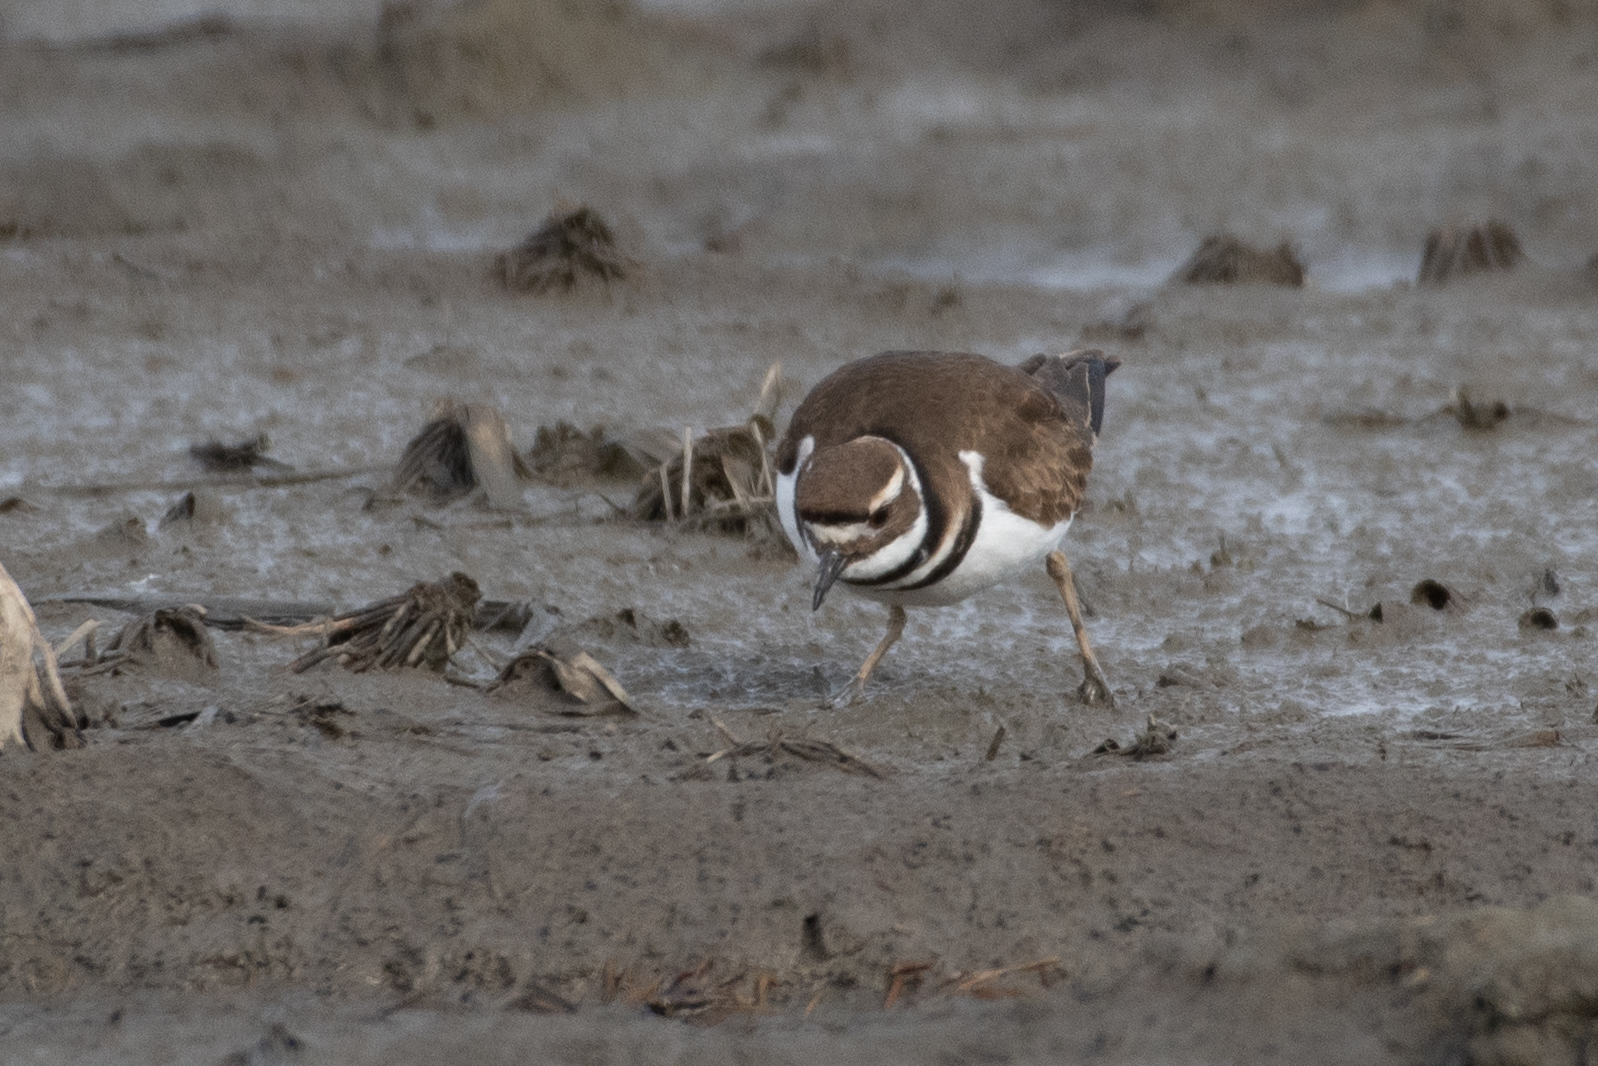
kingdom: Animalia
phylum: Chordata
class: Aves
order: Charadriiformes
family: Charadriidae
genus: Charadrius
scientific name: Charadrius vociferus
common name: Killdeer
